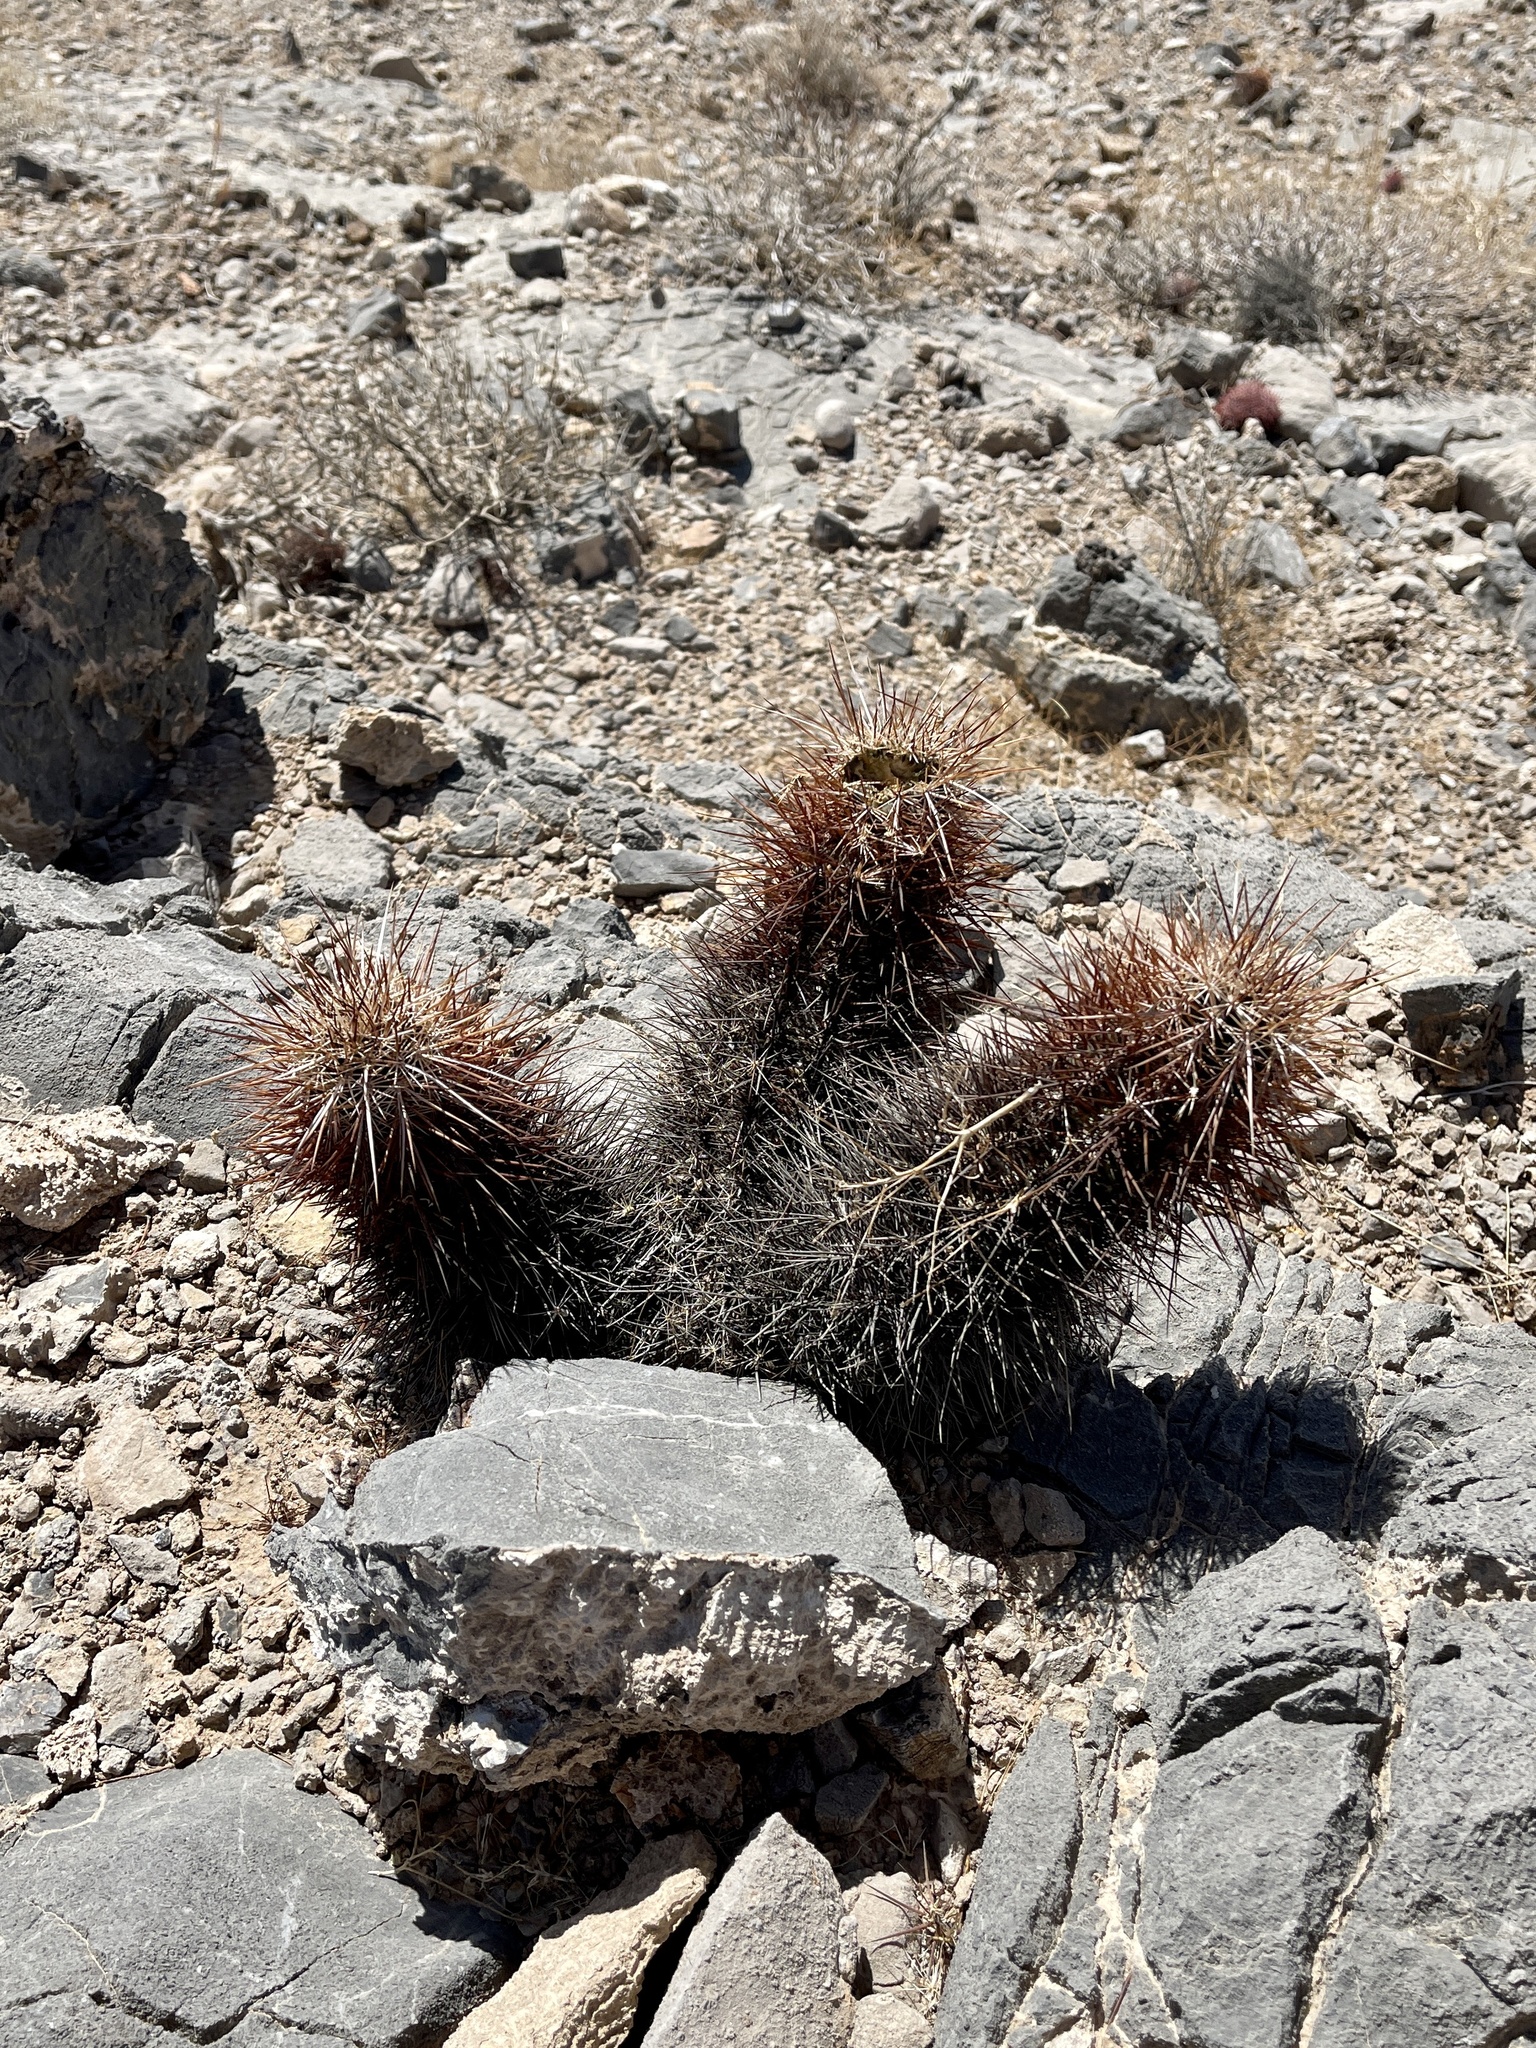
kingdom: Plantae
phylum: Tracheophyta
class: Magnoliopsida
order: Caryophyllales
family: Cactaceae
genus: Echinocereus
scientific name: Echinocereus engelmannii
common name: Engelmann's hedgehog cactus
